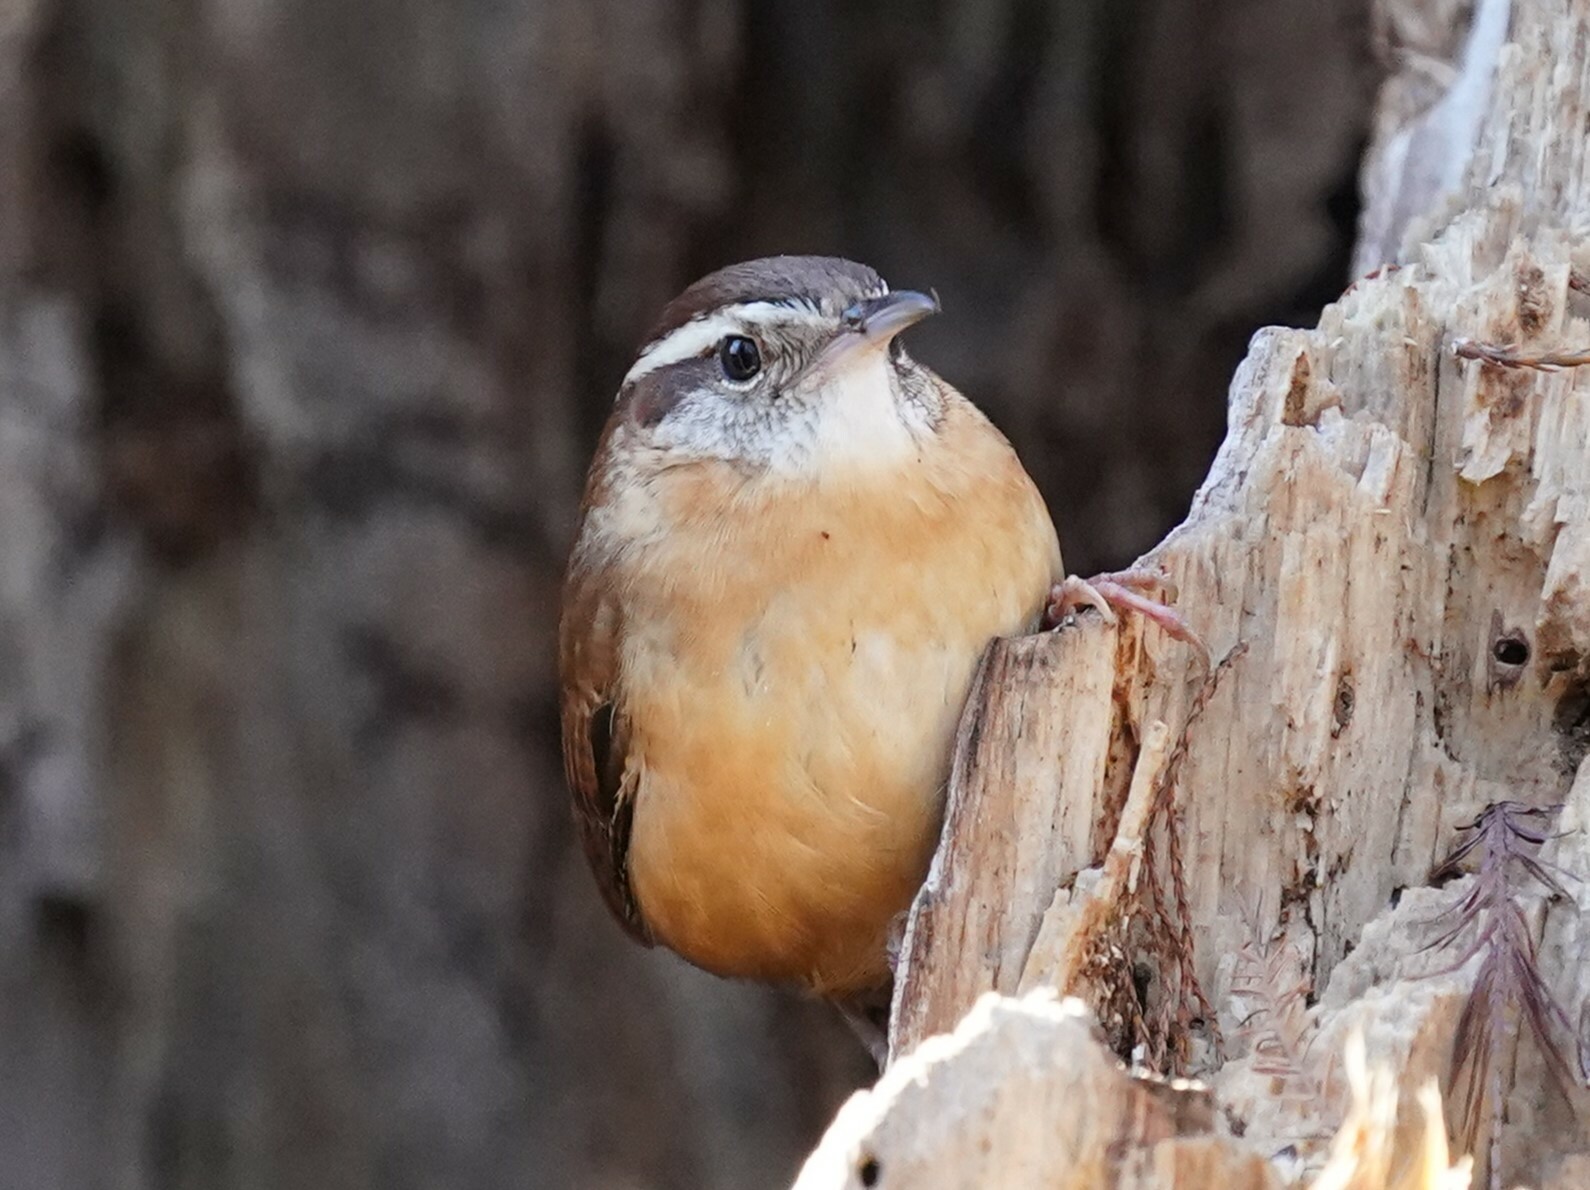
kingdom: Animalia
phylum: Chordata
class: Aves
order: Passeriformes
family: Troglodytidae
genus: Thryothorus
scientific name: Thryothorus ludovicianus
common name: Carolina wren
